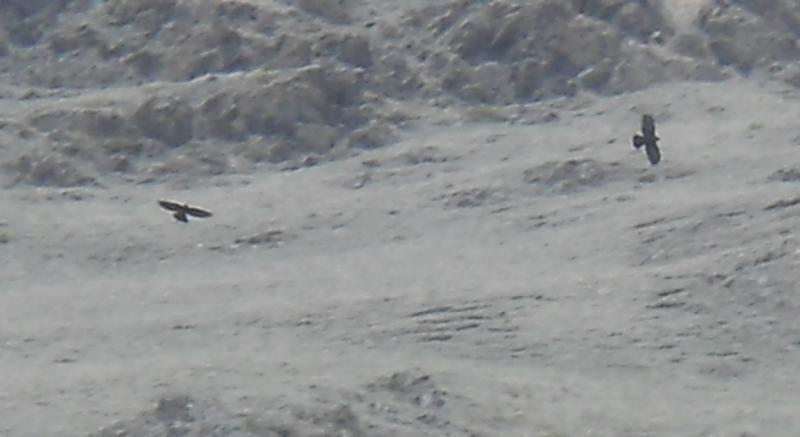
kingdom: Animalia
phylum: Chordata
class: Aves
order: Passeriformes
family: Corvidae
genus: Pyrrhocorax
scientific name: Pyrrhocorax graculus
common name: Alpine chough
